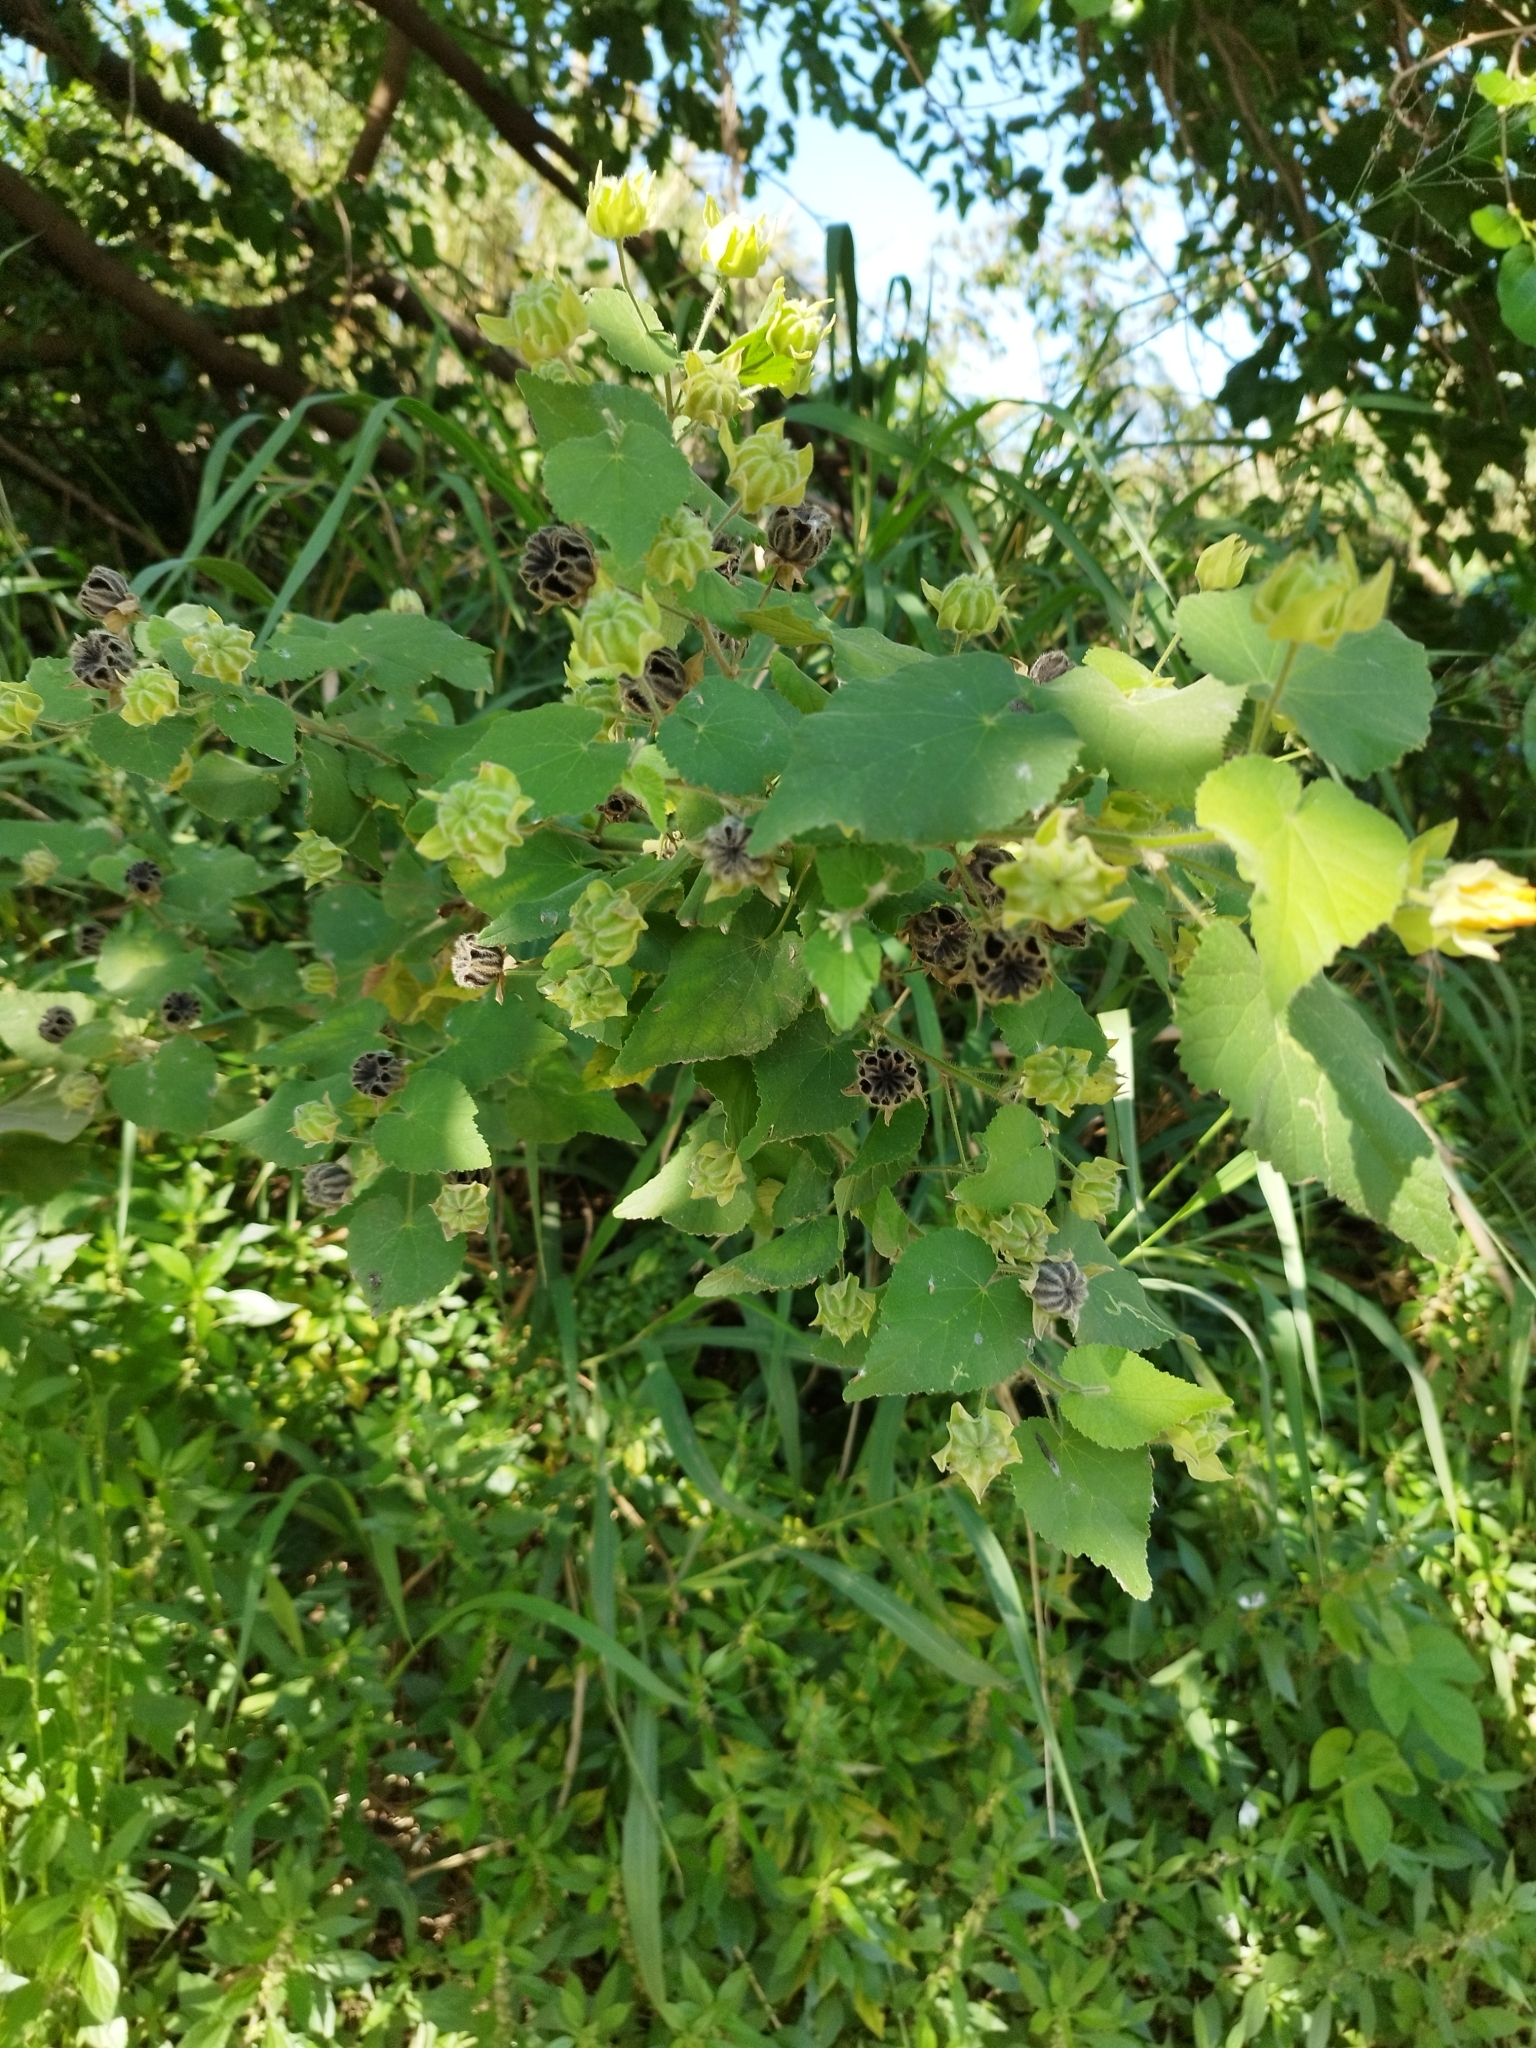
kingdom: Plantae
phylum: Tracheophyta
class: Magnoliopsida
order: Malvales
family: Malvaceae
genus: Abutilon
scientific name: Abutilon grandifolium
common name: Hairy abutilon
